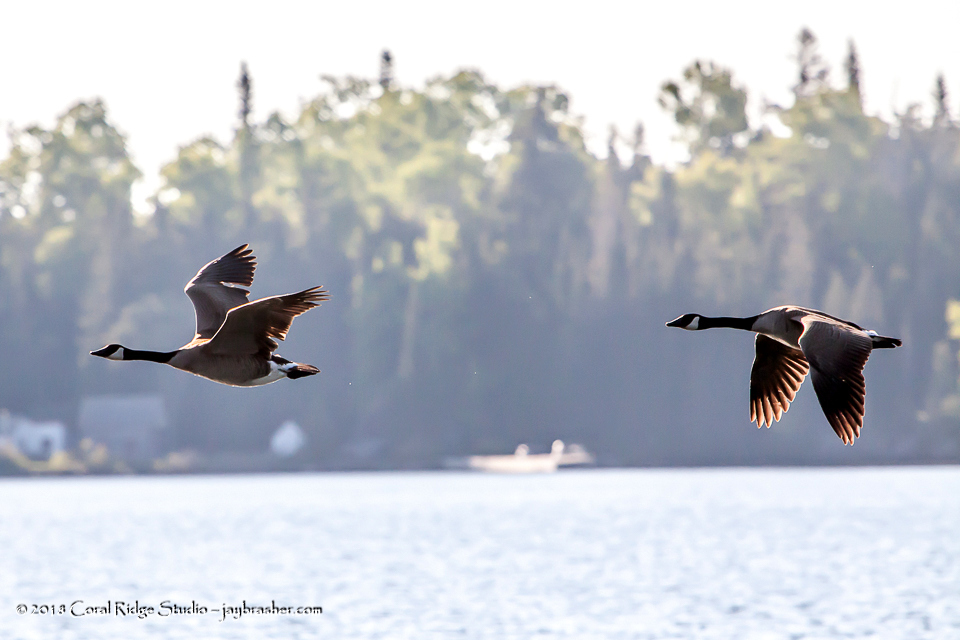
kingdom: Animalia
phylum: Chordata
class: Aves
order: Anseriformes
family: Anatidae
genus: Branta
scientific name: Branta canadensis
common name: Canada goose
